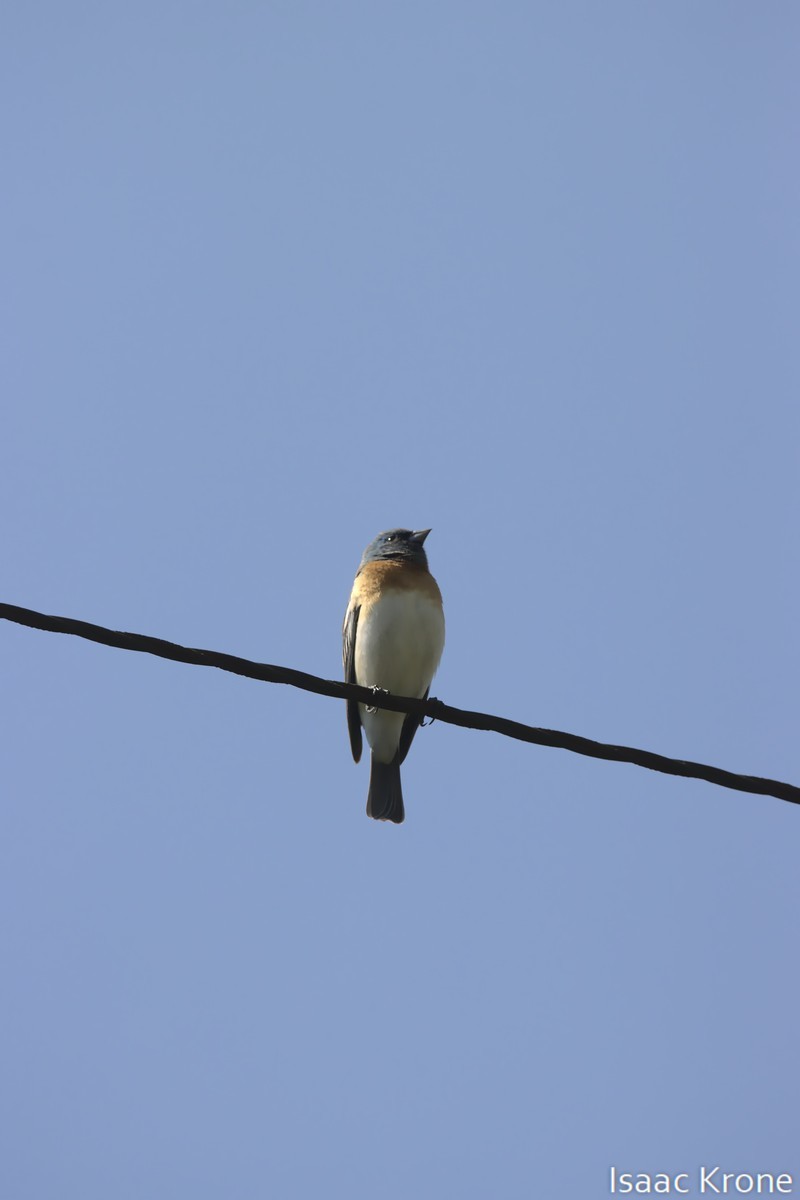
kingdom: Animalia
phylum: Chordata
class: Aves
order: Passeriformes
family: Cardinalidae
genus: Passerina
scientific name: Passerina amoena
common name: Lazuli bunting
